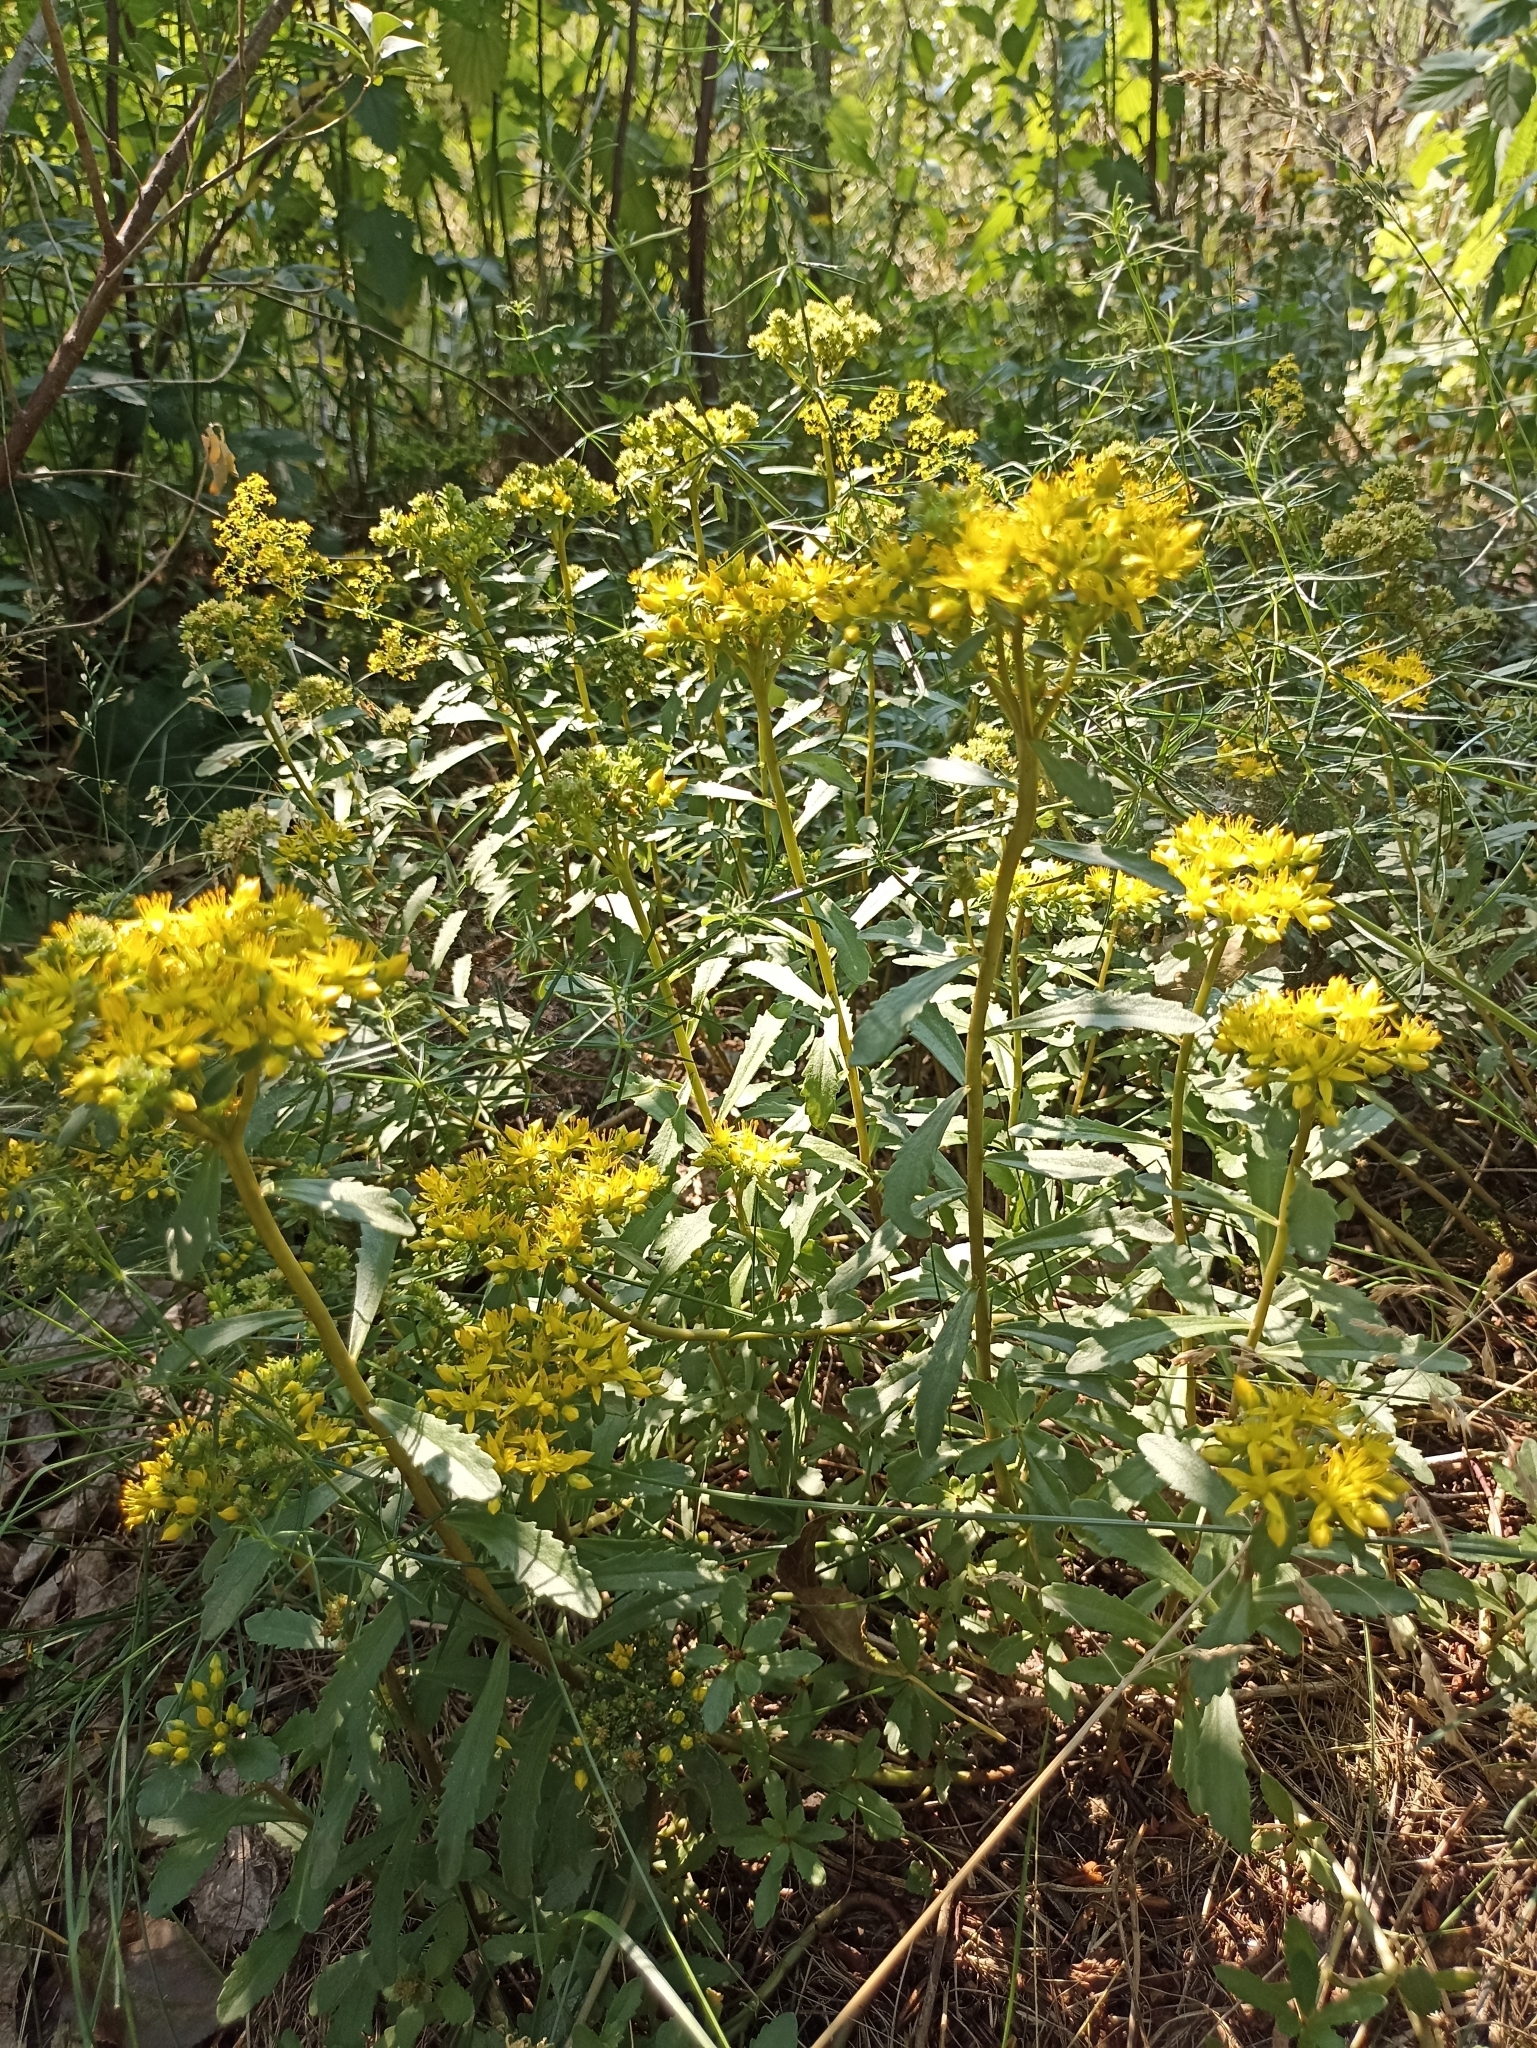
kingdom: Plantae
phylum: Tracheophyta
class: Magnoliopsida
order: Saxifragales
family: Crassulaceae
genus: Phedimus
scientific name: Phedimus aizoon
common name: Orpin aizoon
